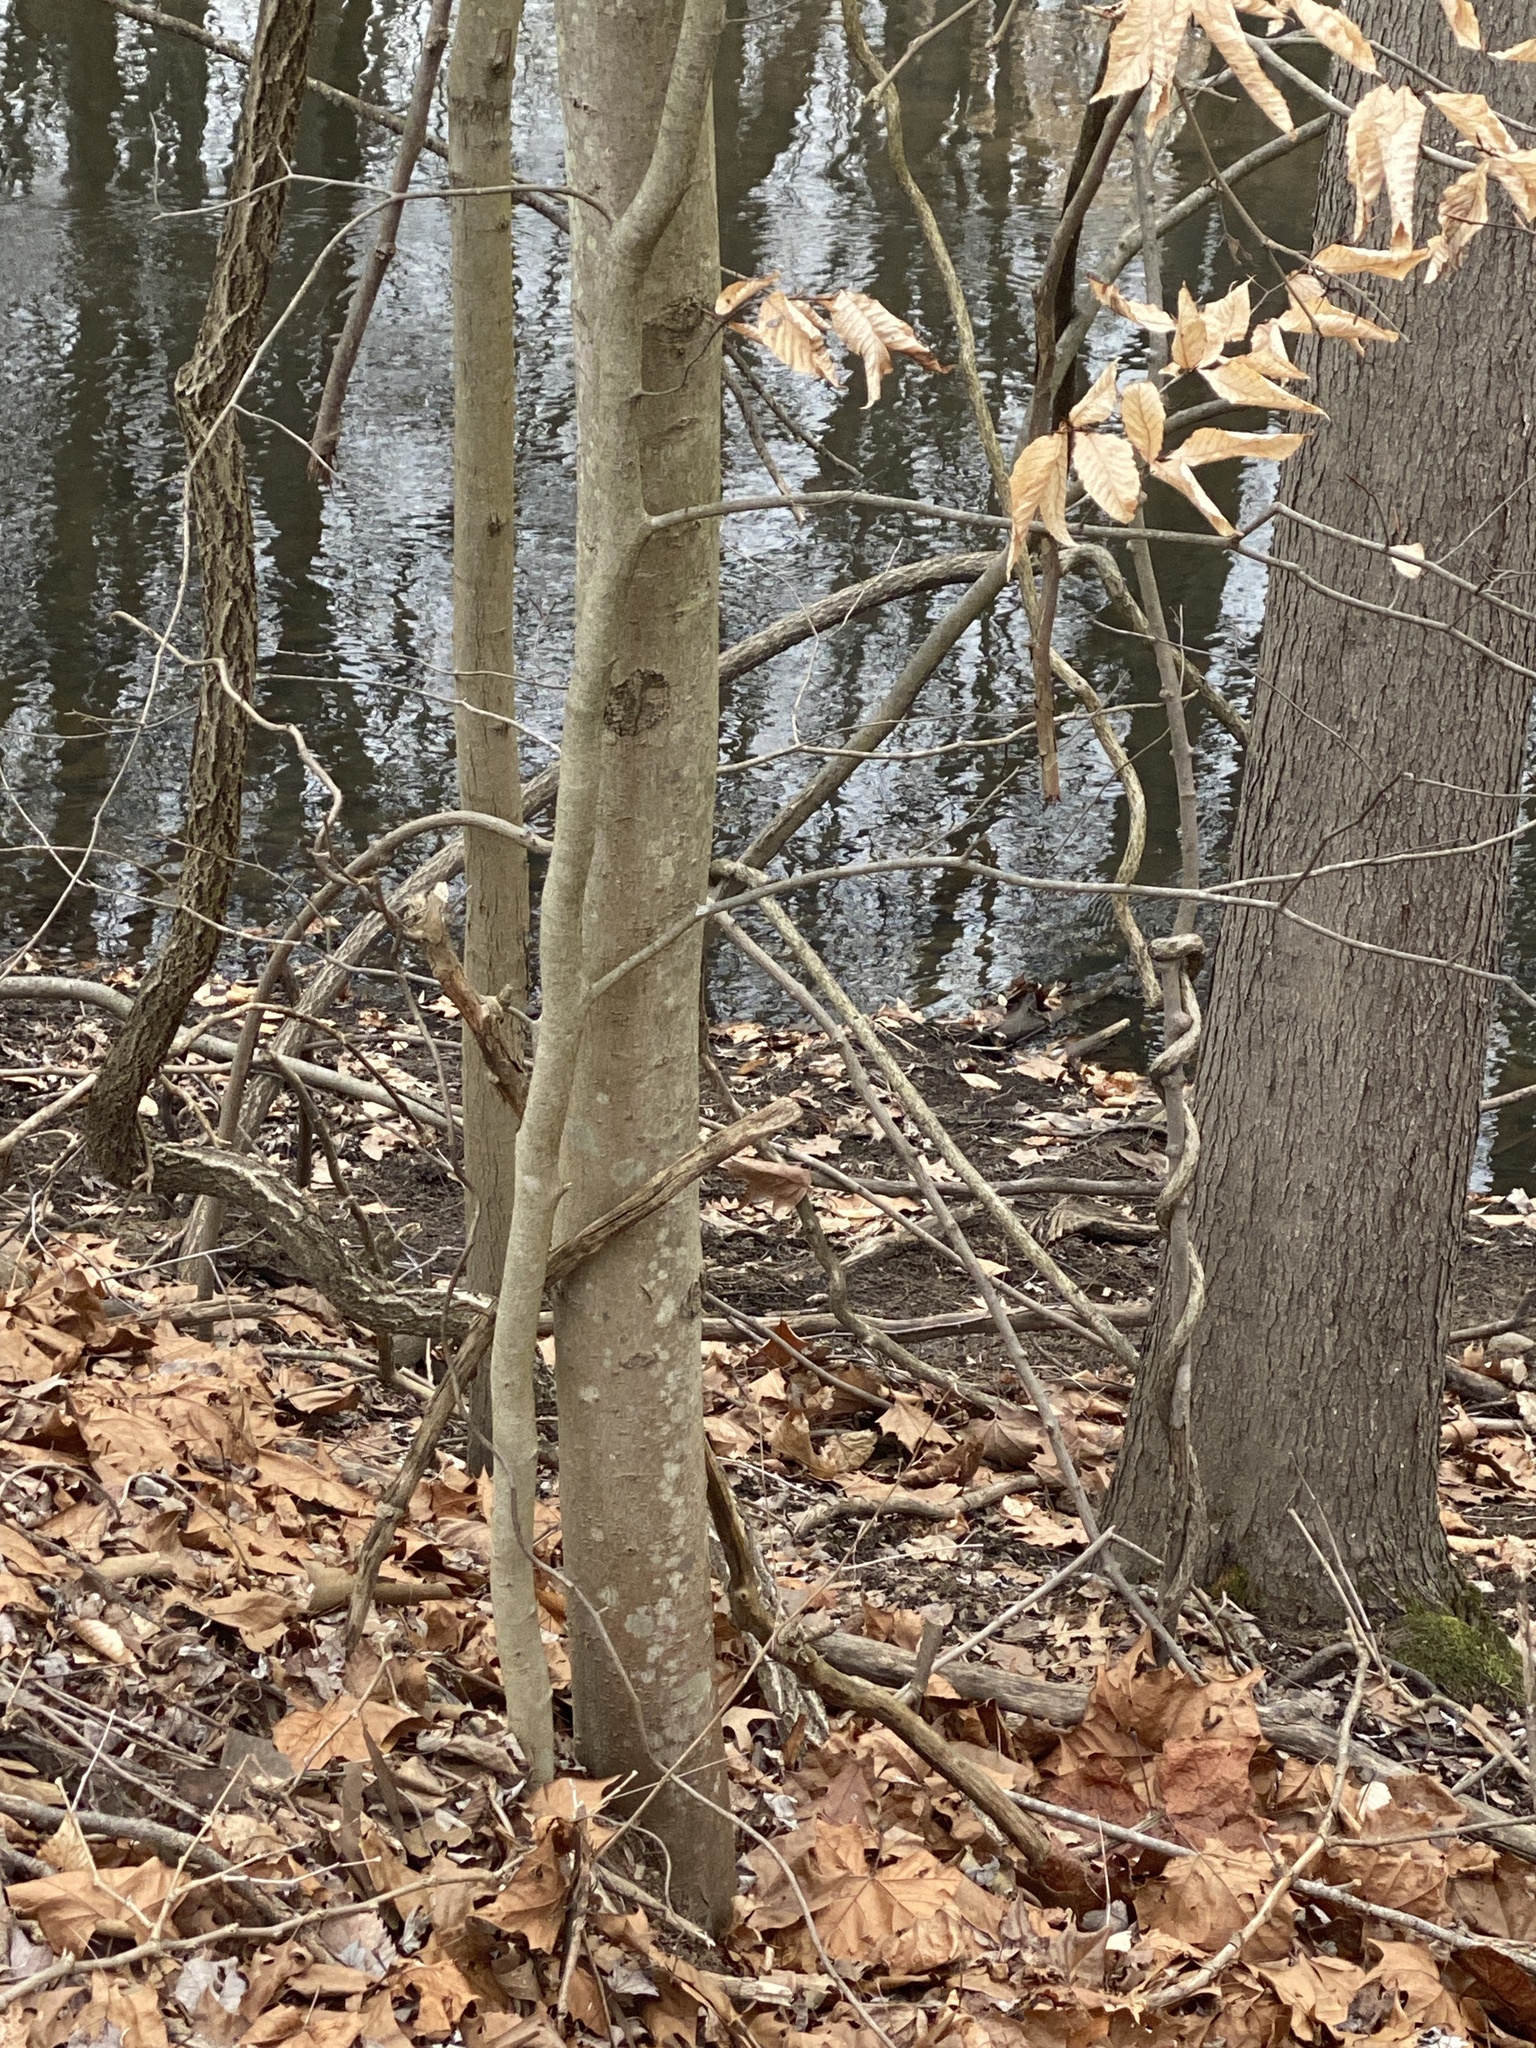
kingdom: Plantae
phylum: Tracheophyta
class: Magnoliopsida
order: Fagales
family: Fagaceae
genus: Fagus
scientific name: Fagus grandifolia
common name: American beech
